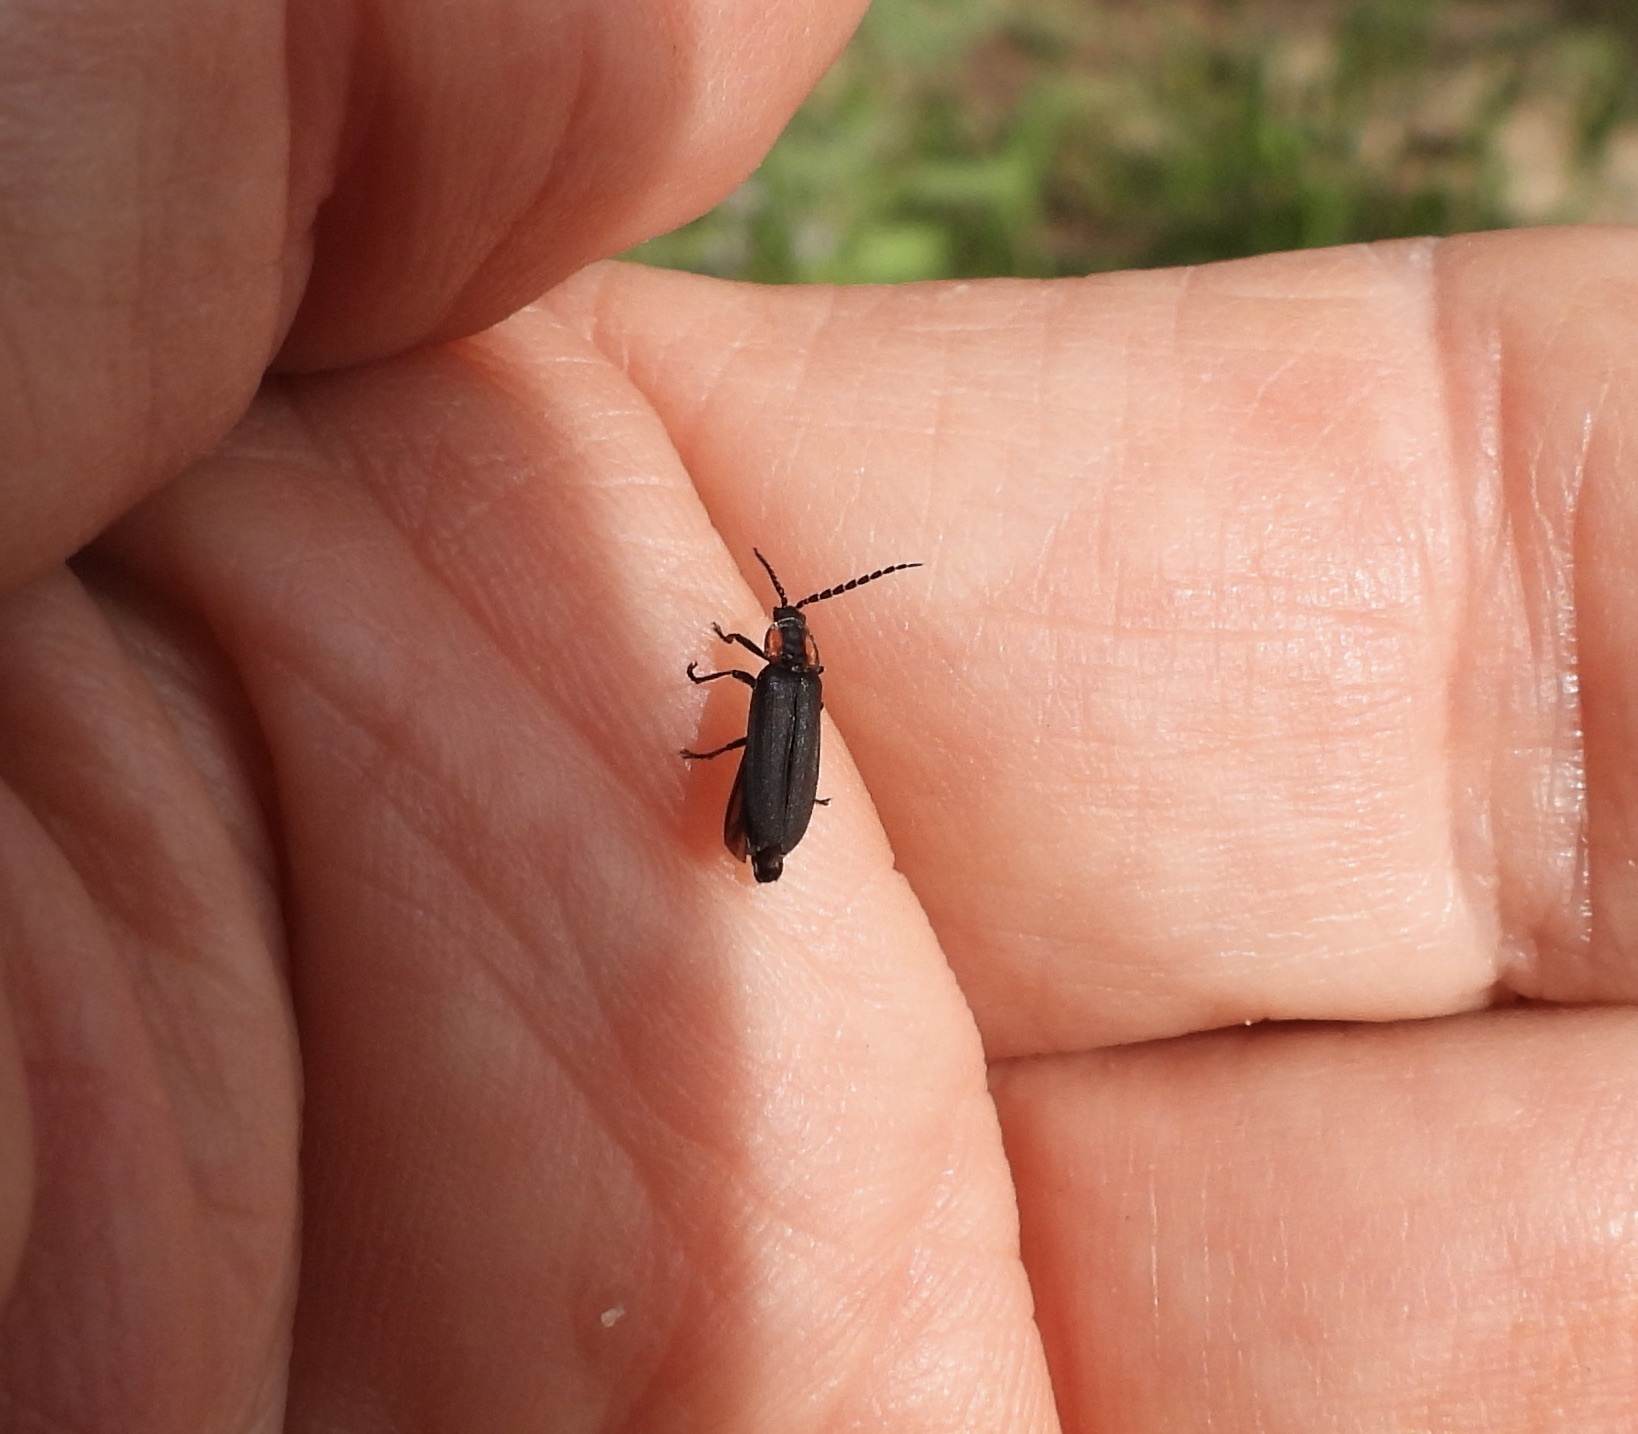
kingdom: Animalia
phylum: Arthropoda
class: Insecta
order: Coleoptera
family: Lampyridae
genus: Pyropyga
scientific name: Pyropyga
